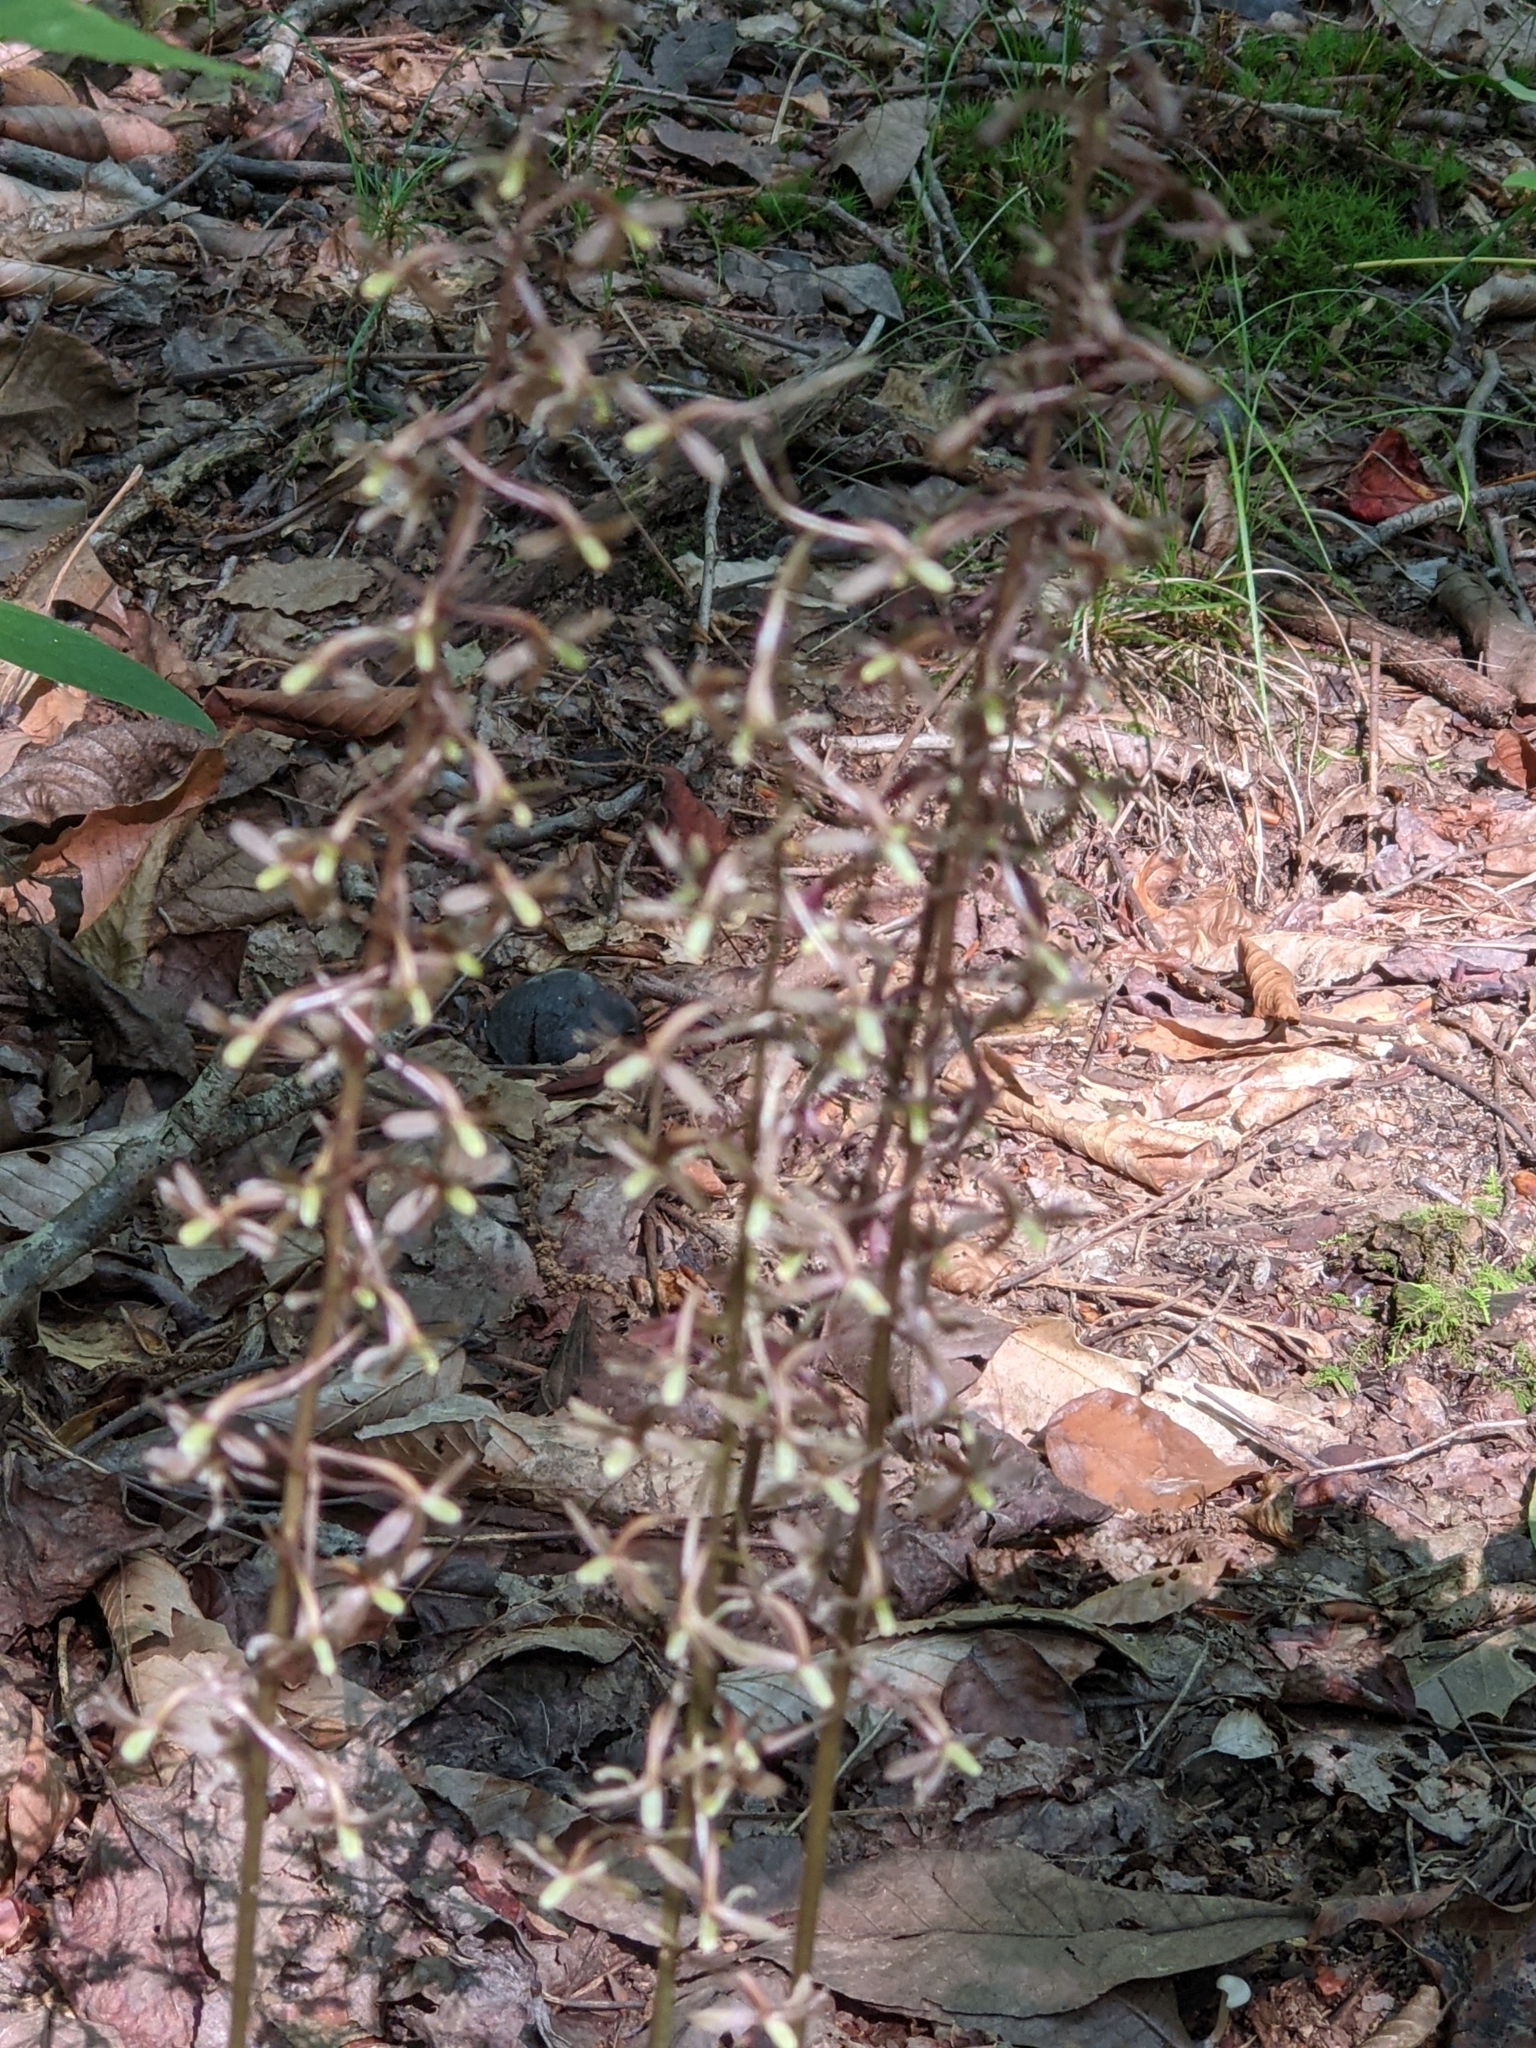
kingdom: Plantae
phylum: Tracheophyta
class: Liliopsida
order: Asparagales
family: Orchidaceae
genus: Tipularia
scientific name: Tipularia discolor
